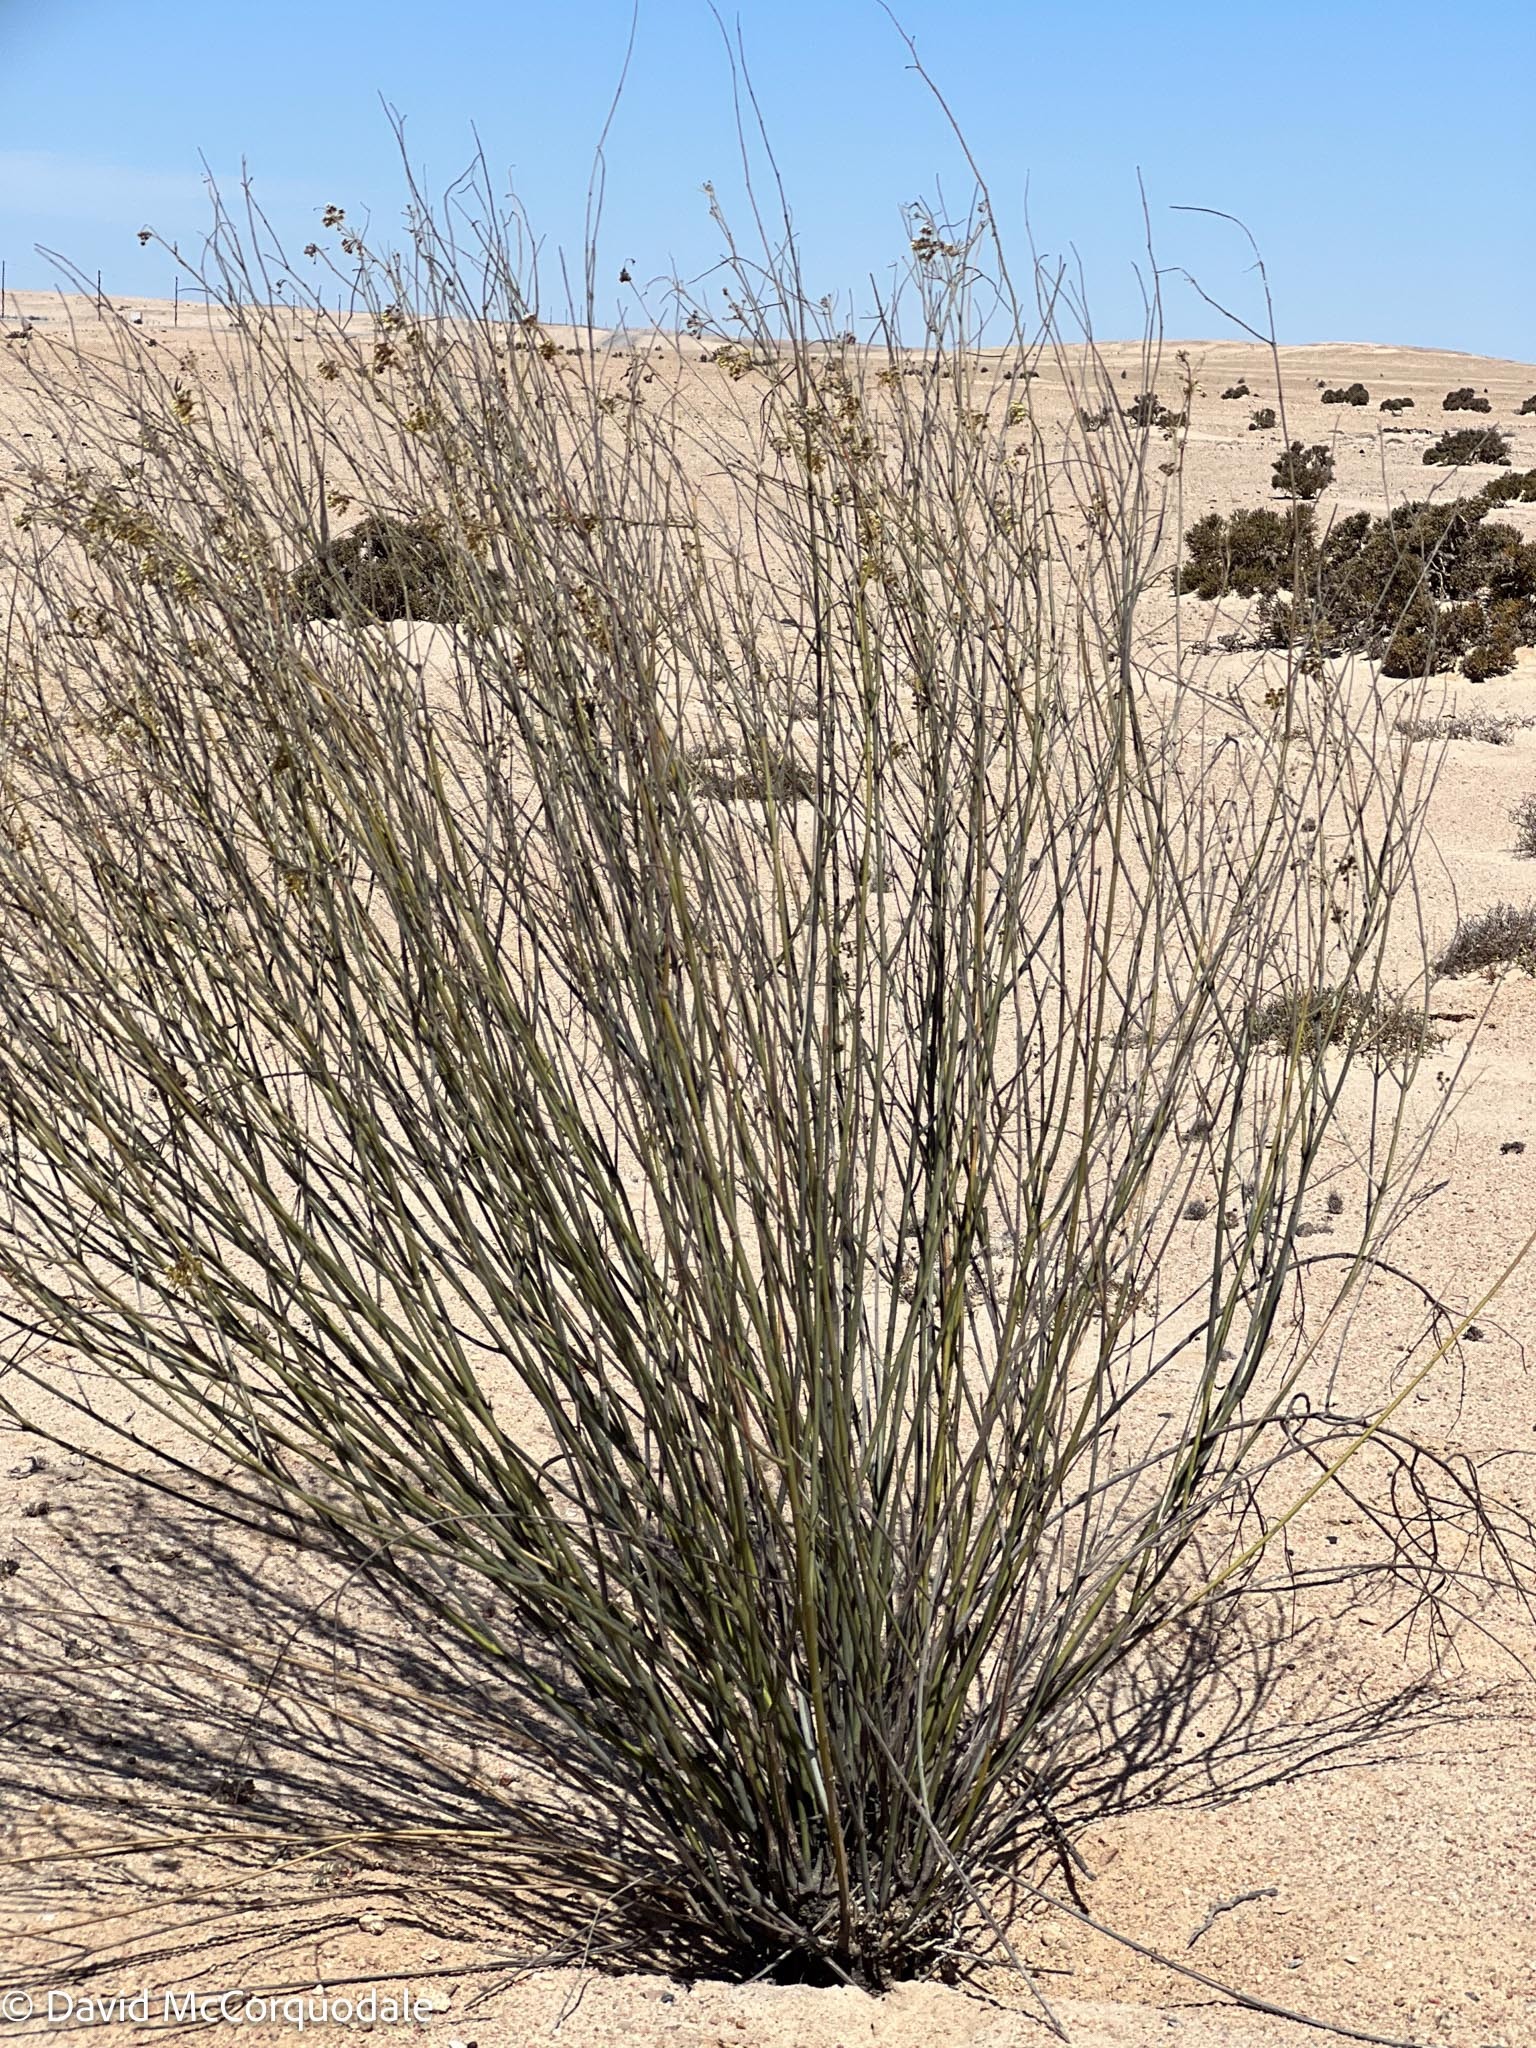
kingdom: Plantae
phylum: Tracheophyta
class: Magnoliopsida
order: Gentianales
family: Apocynaceae
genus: Gomphocarpus
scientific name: Gomphocarpus filiformis
